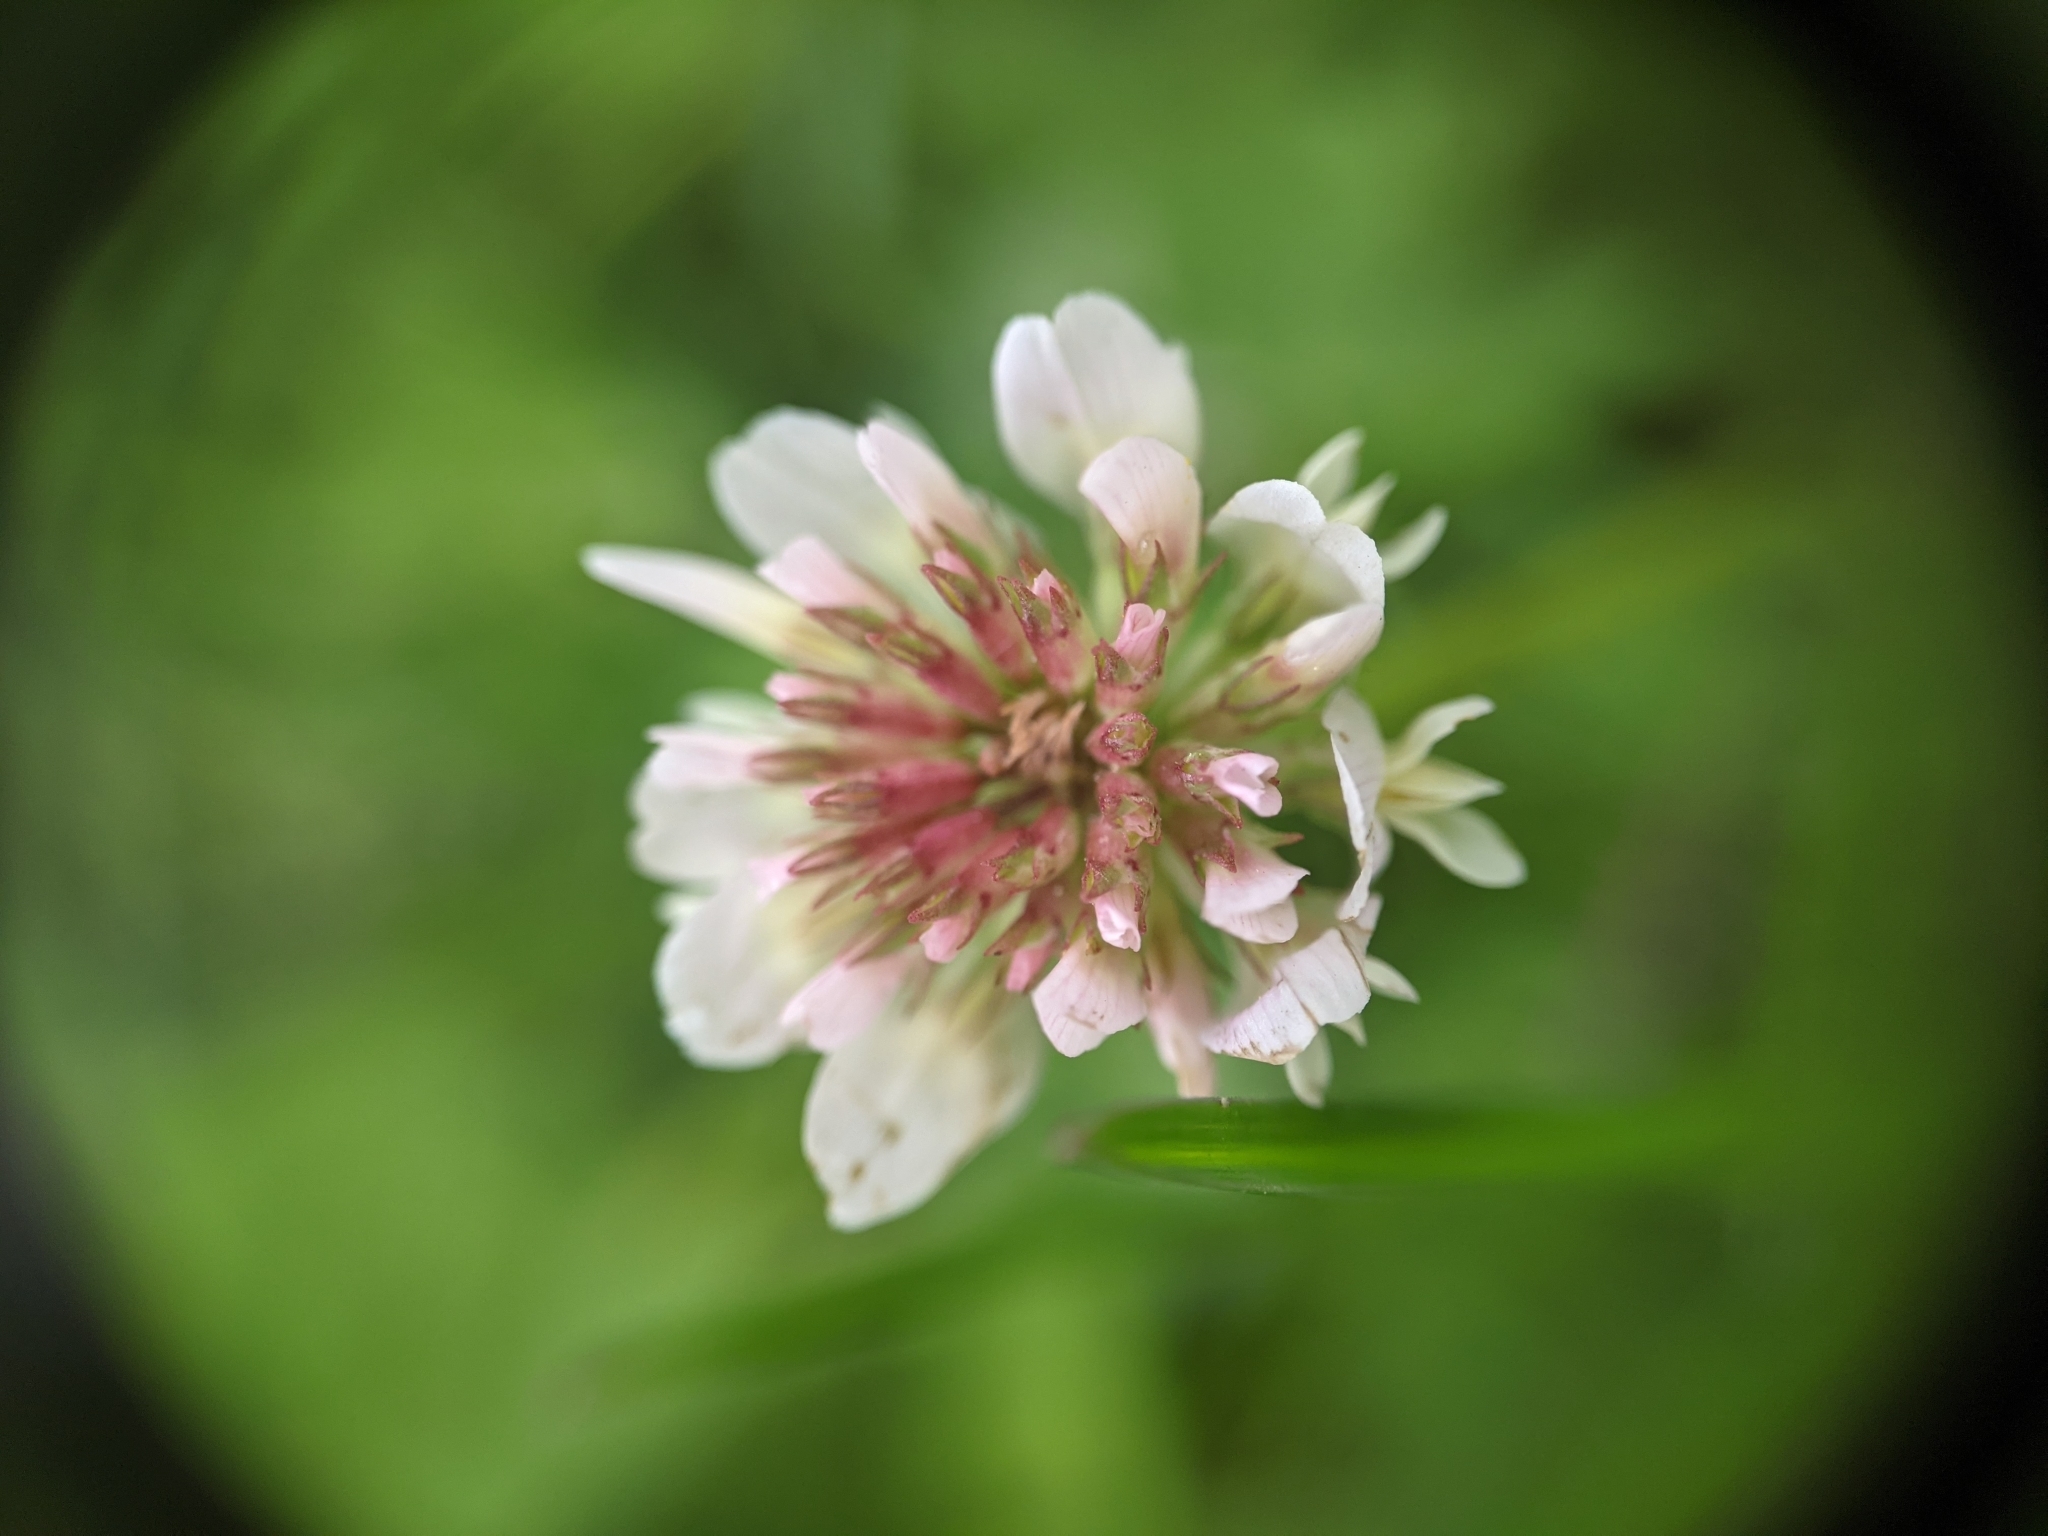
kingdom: Plantae
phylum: Tracheophyta
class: Magnoliopsida
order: Fabales
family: Fabaceae
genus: Trifolium
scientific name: Trifolium repens
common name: White clover
